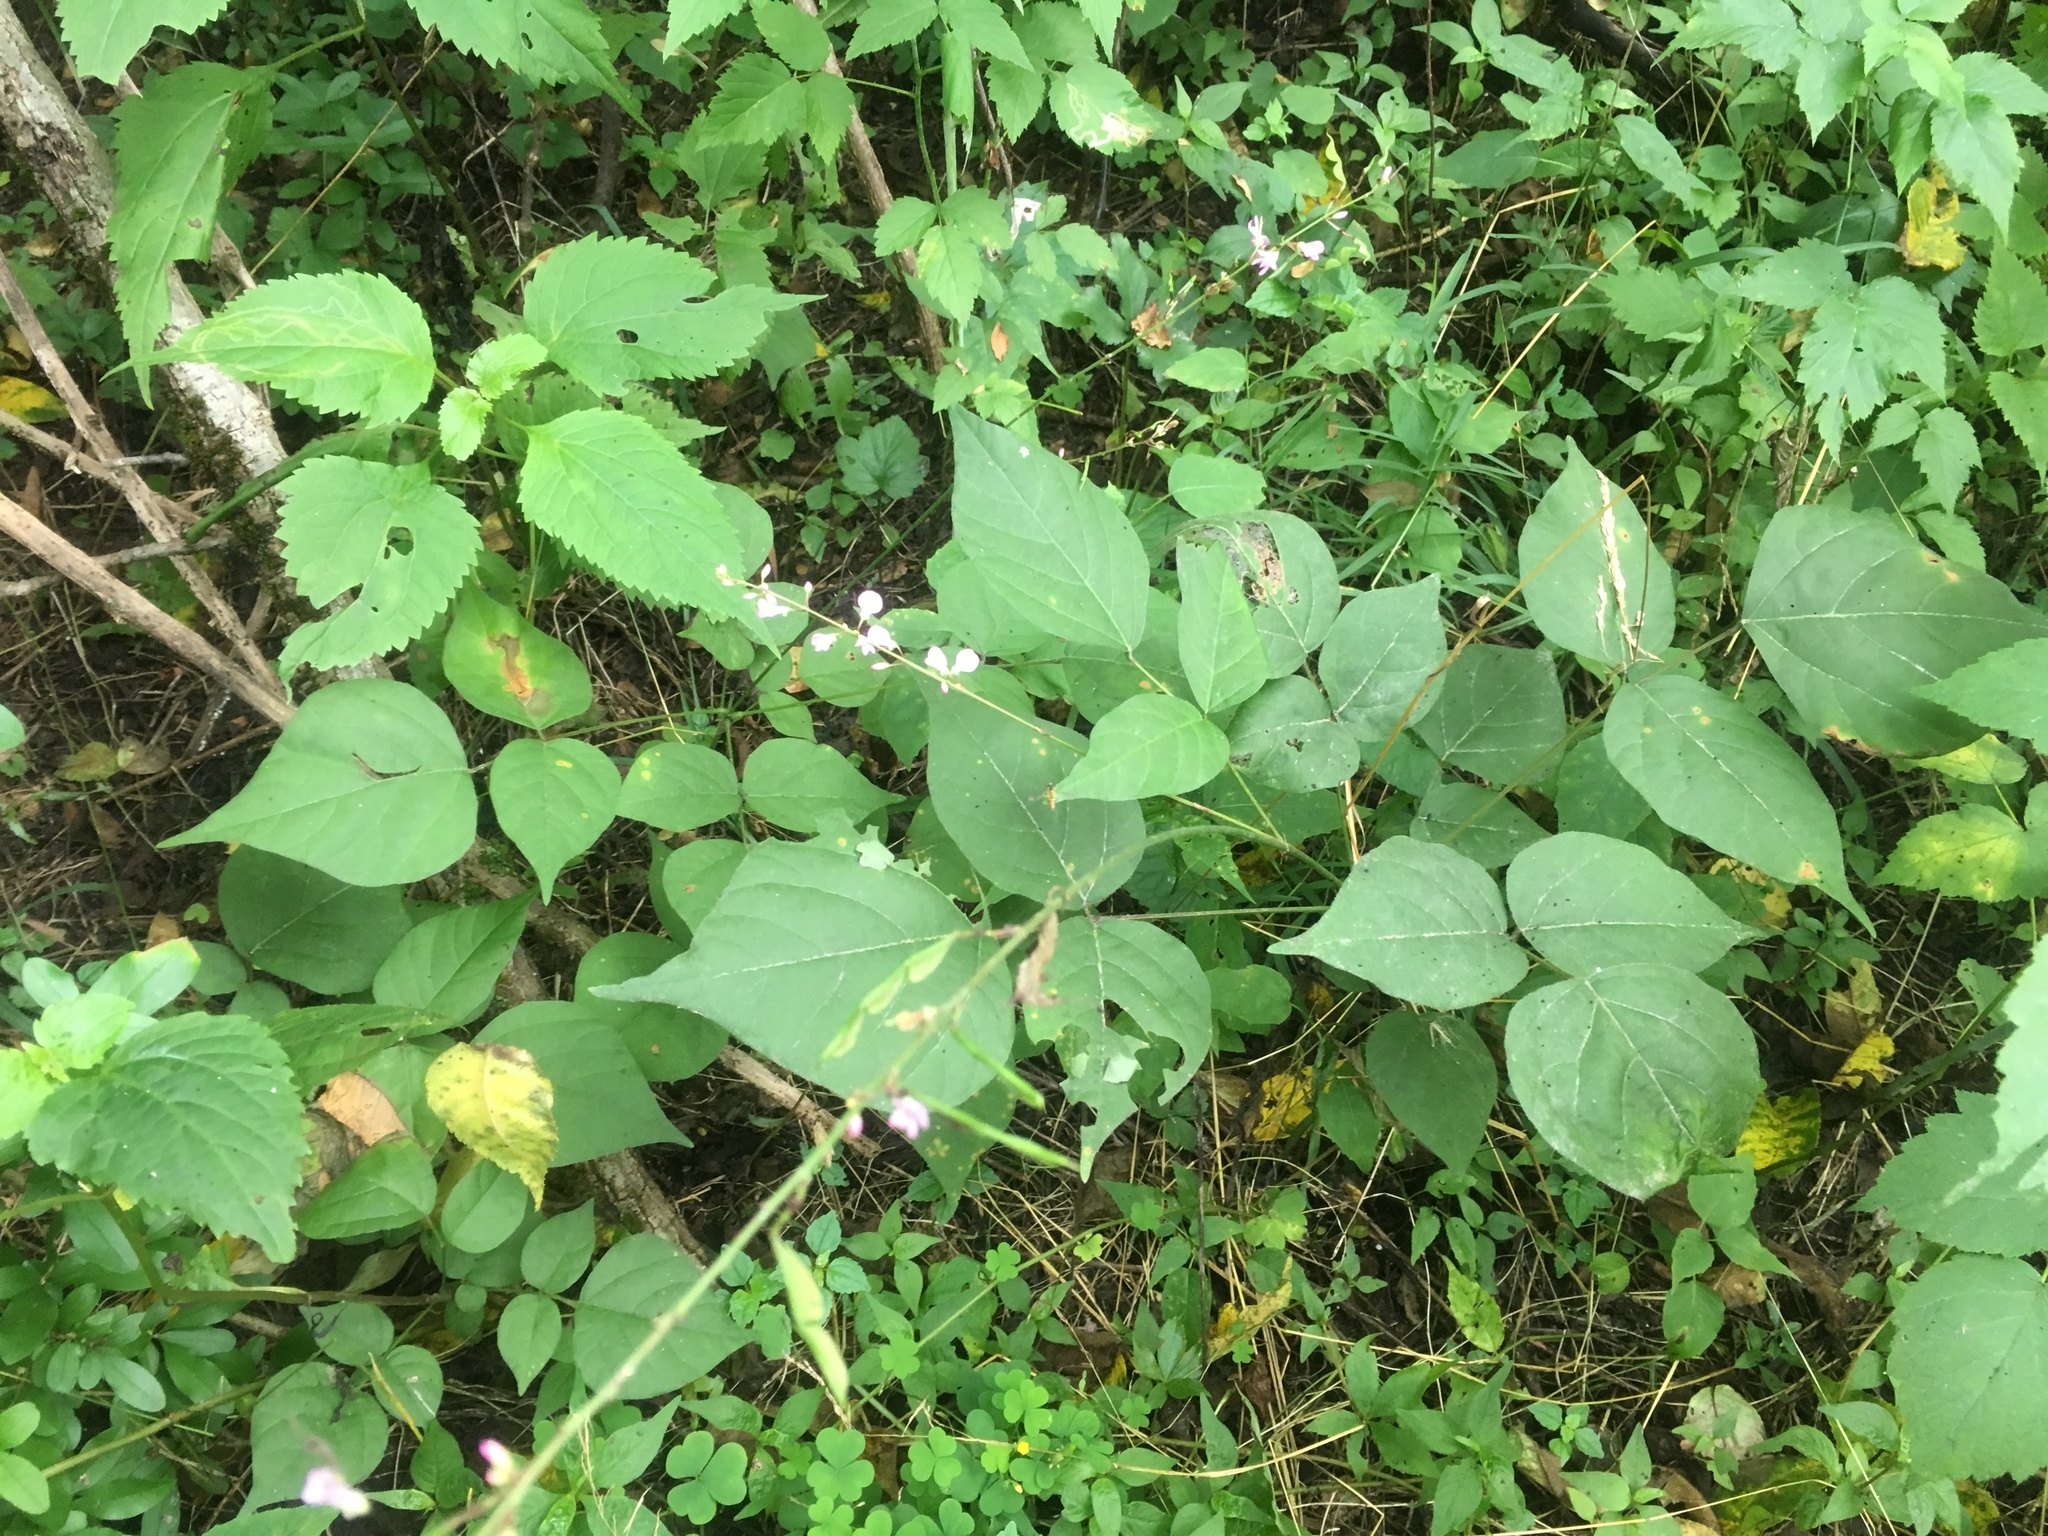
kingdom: Plantae
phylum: Tracheophyta
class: Magnoliopsida
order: Fabales
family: Fabaceae
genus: Hylodesmum
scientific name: Hylodesmum glutinosum
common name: Clustered-leaved tick-trefoil
